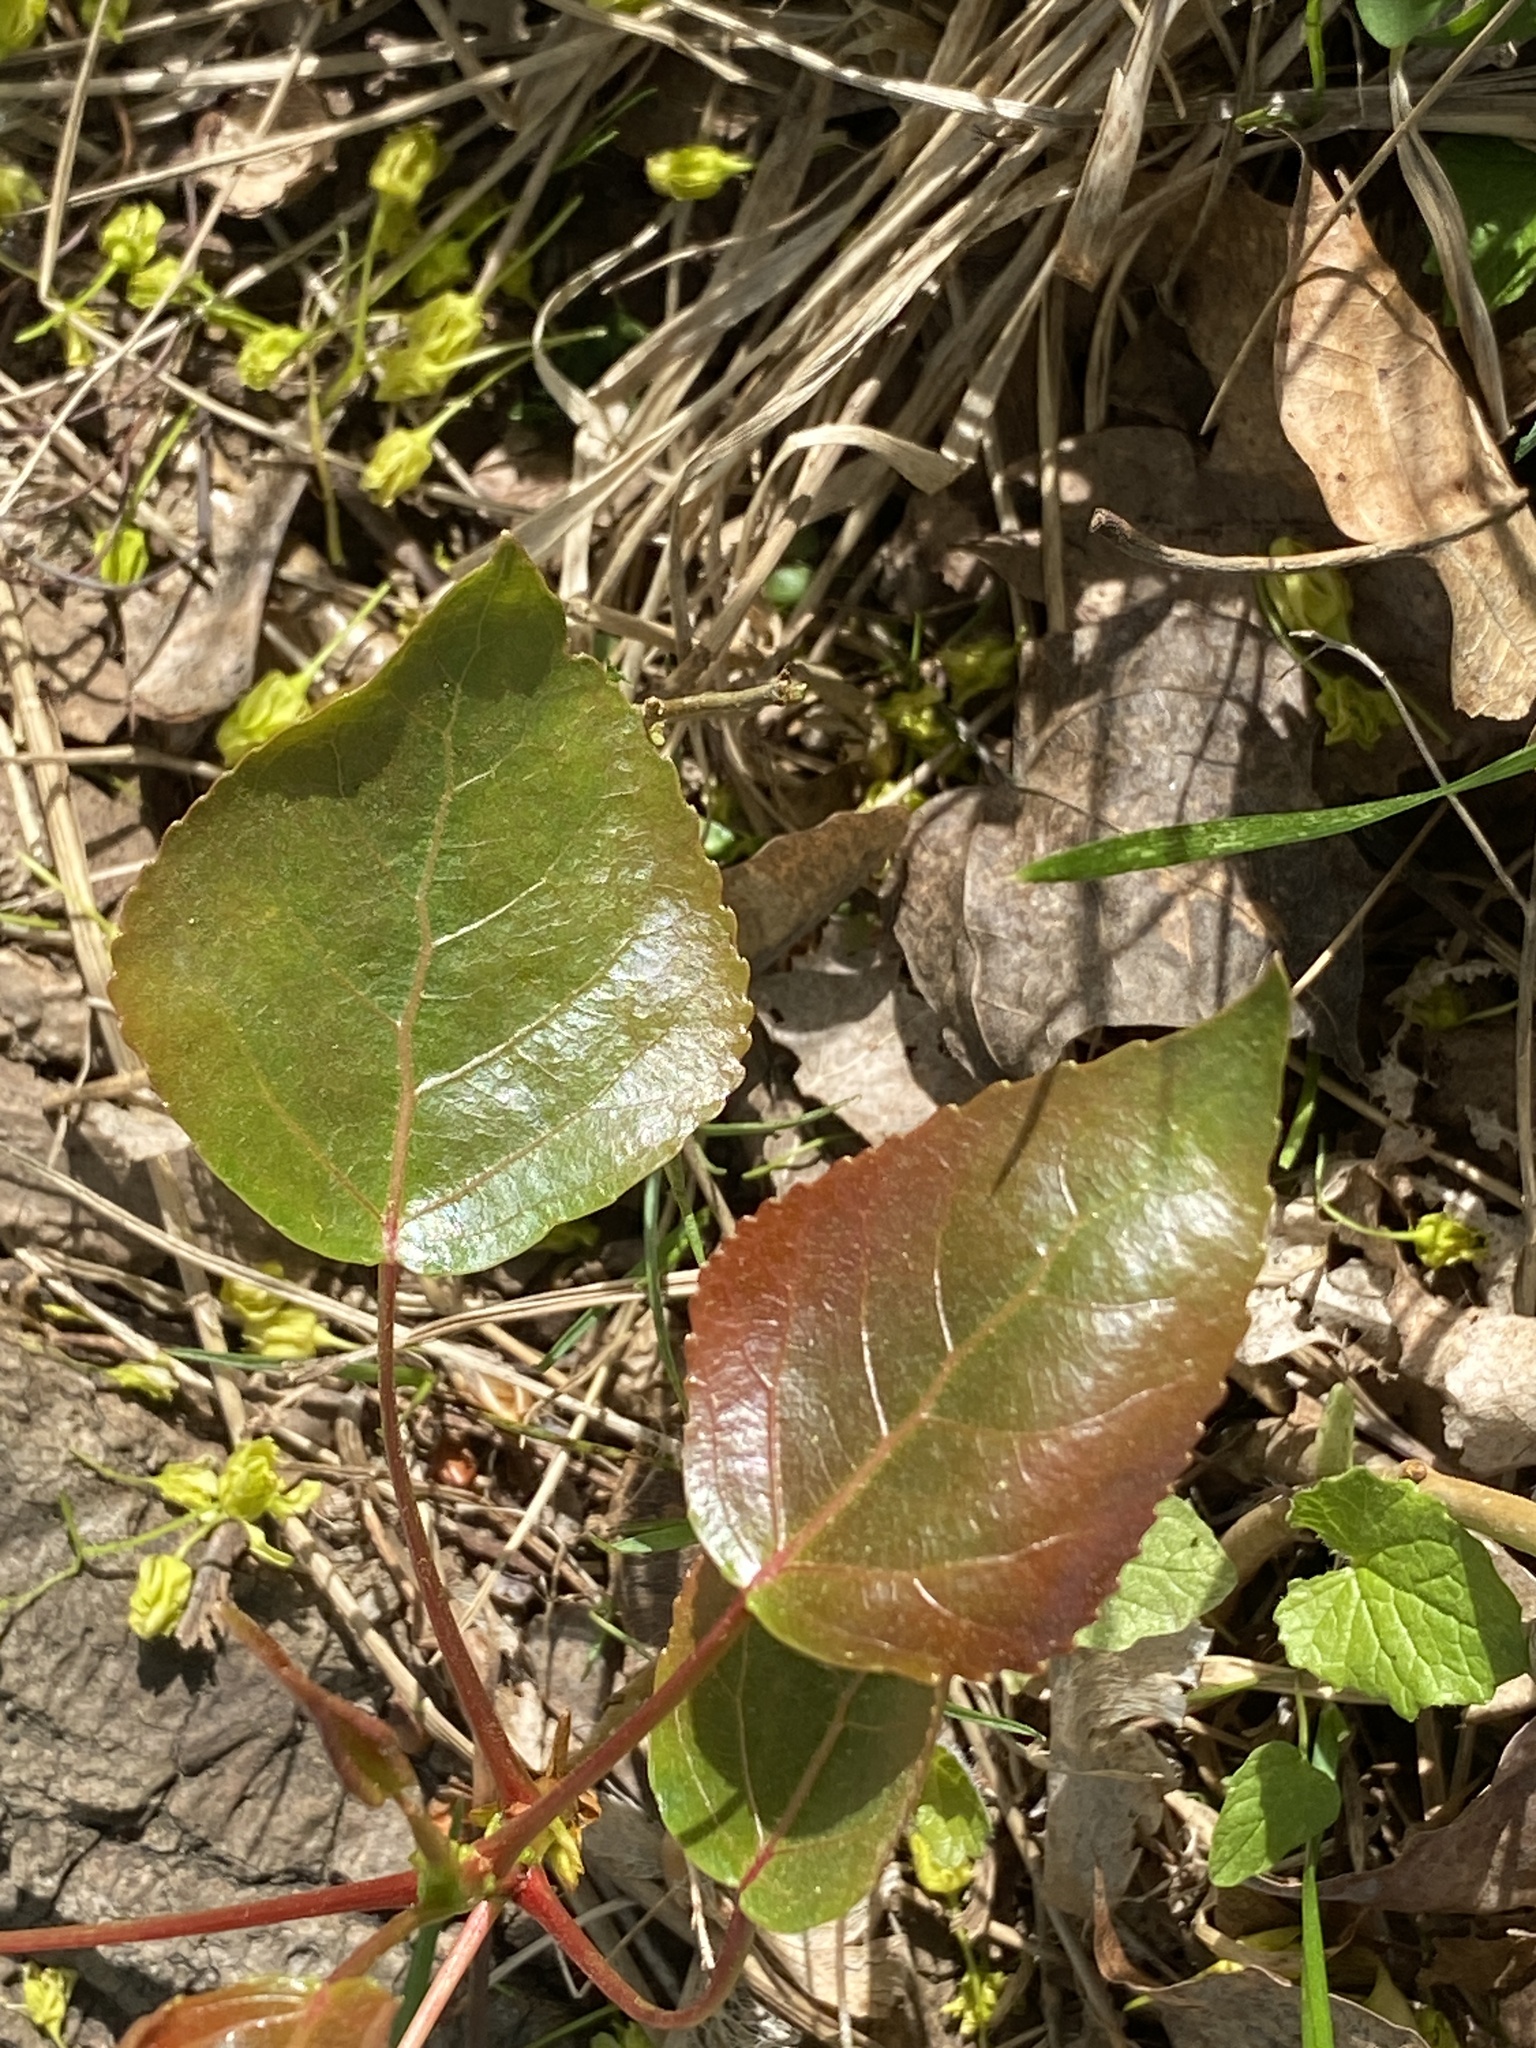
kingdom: Plantae
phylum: Tracheophyta
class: Magnoliopsida
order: Rosales
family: Rosaceae
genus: Pyrus
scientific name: Pyrus calleryana
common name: Callery pear
